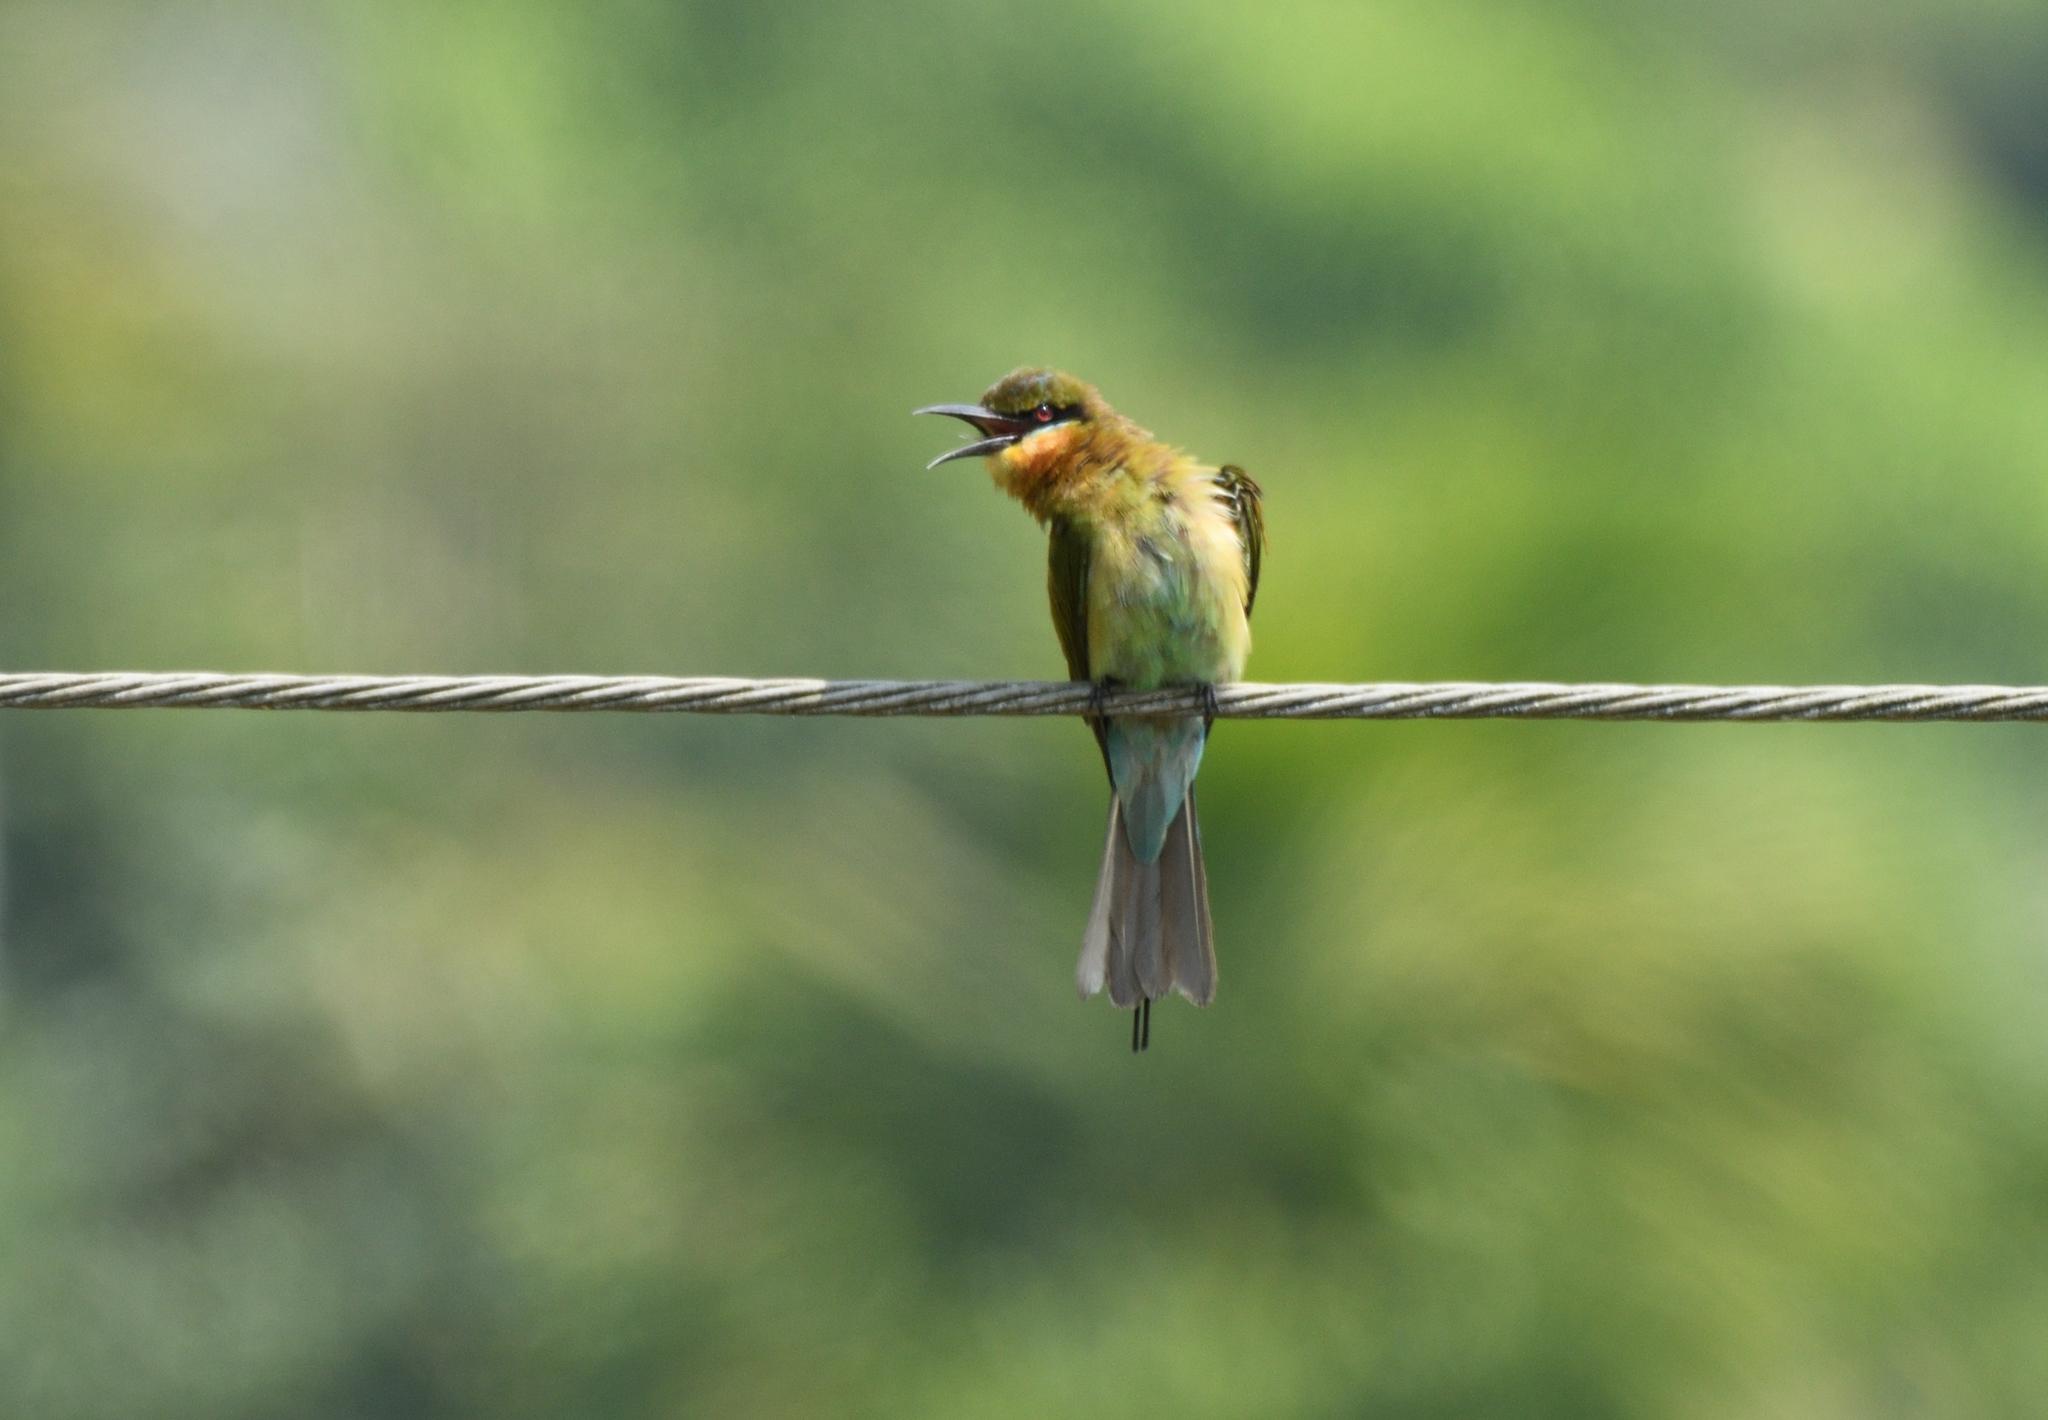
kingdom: Animalia
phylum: Chordata
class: Aves
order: Coraciiformes
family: Meropidae
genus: Merops
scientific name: Merops philippinus
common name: Blue-tailed bee-eater
